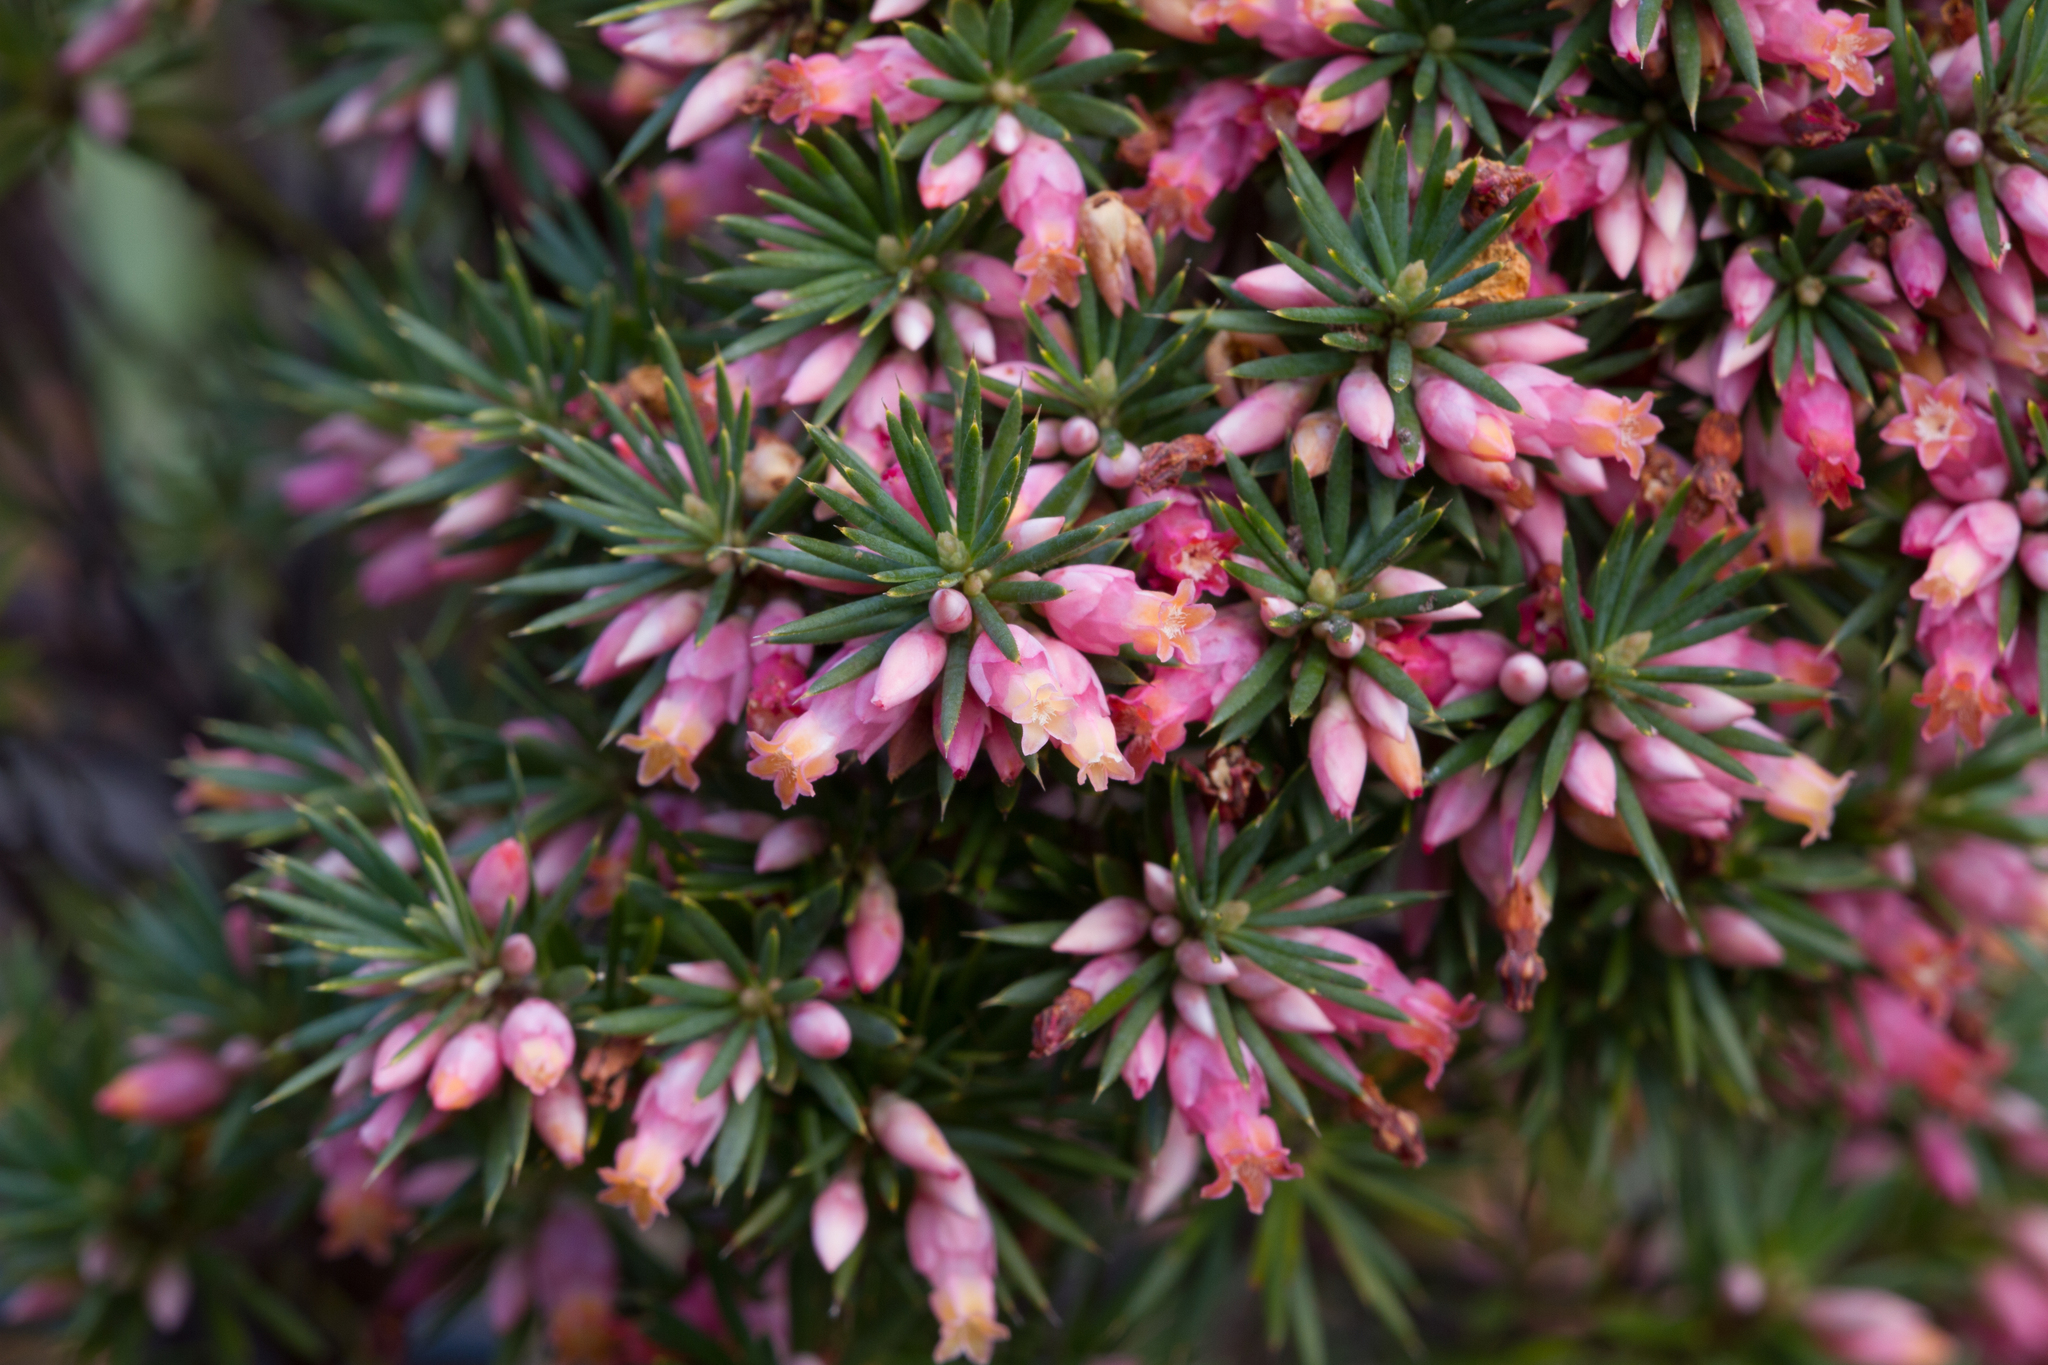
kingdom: Plantae
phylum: Tracheophyta
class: Magnoliopsida
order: Ericales
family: Ericaceae
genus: Brachyloma
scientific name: Brachyloma ericoides
